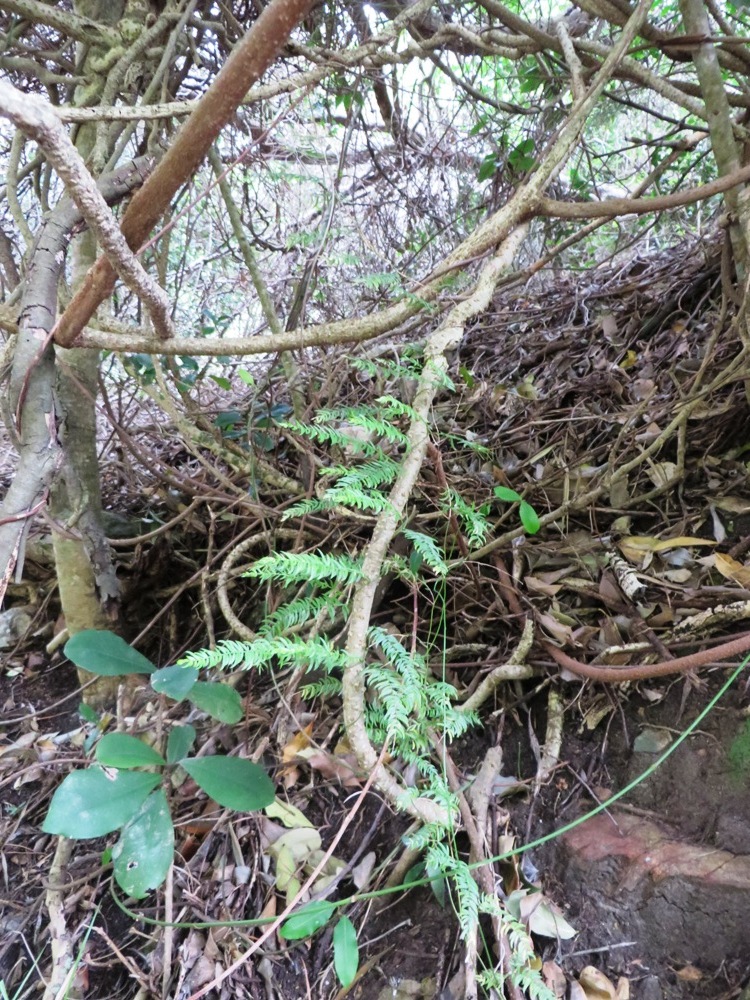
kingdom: Plantae
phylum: Tracheophyta
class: Liliopsida
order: Asparagales
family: Asparagaceae
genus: Asparagus
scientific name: Asparagus scandens
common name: Asparagus-fern
